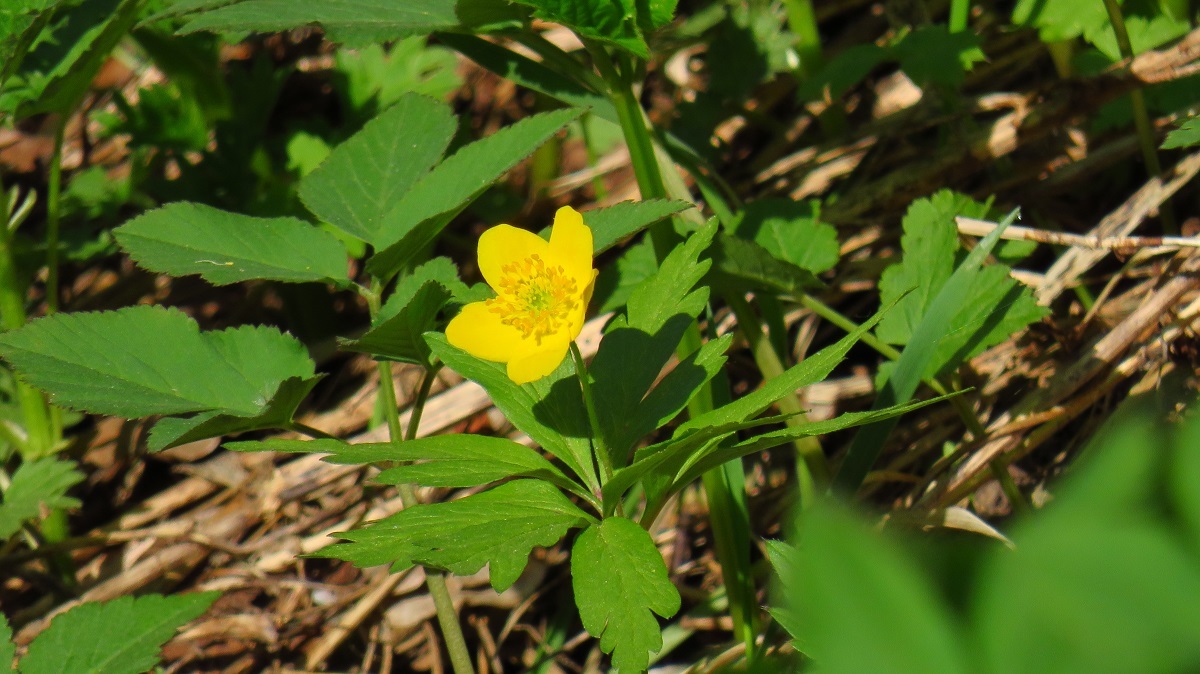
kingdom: Plantae
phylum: Tracheophyta
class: Magnoliopsida
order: Ranunculales
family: Ranunculaceae
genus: Anemone
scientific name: Anemone ranunculoides
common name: Yellow anemone
